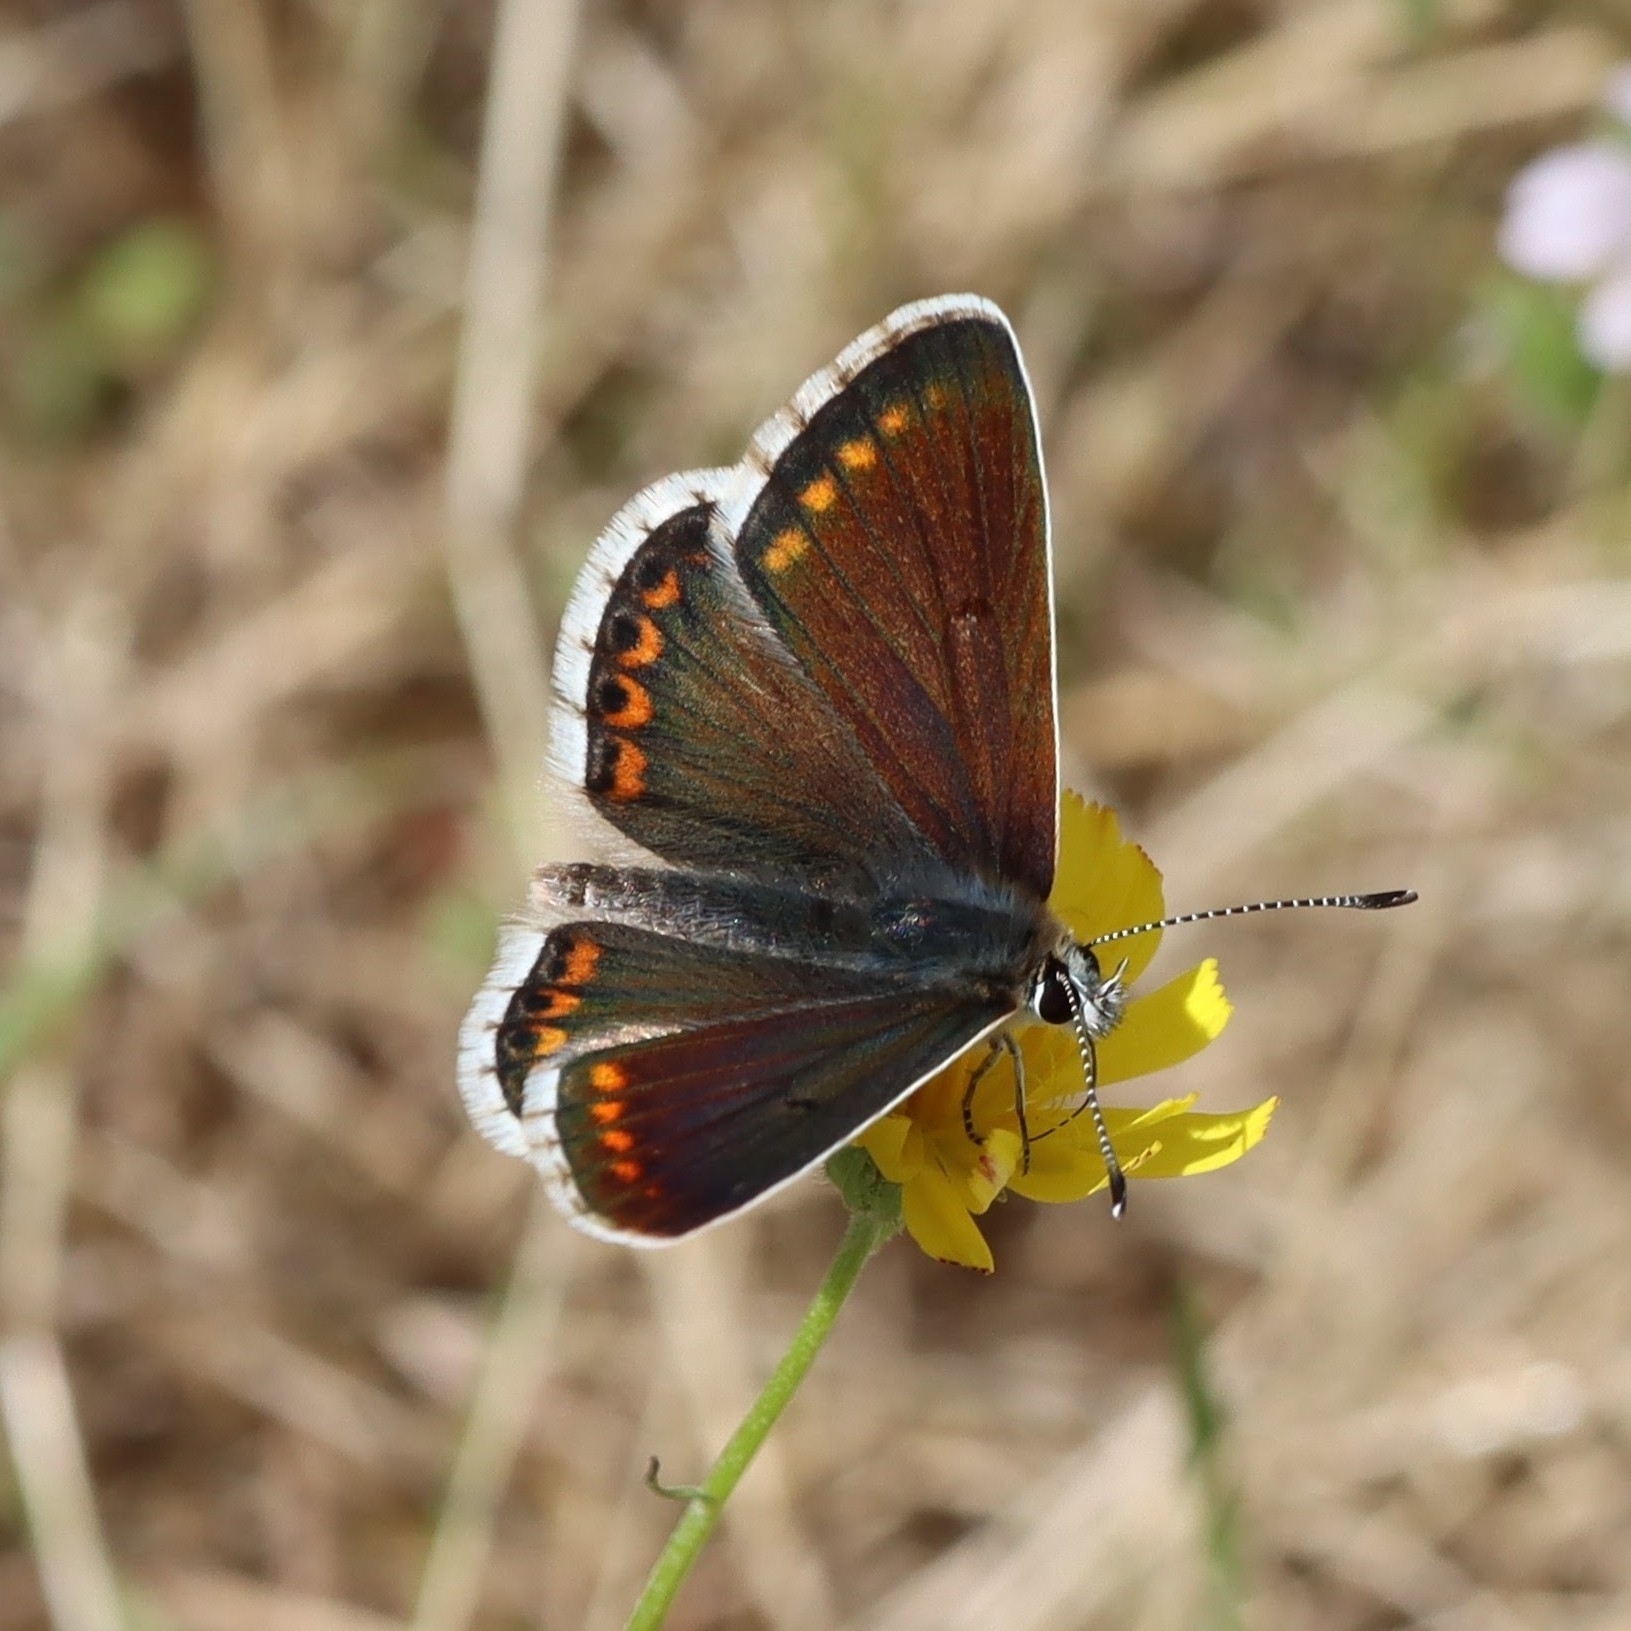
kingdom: Animalia
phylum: Arthropoda
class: Insecta
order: Lepidoptera
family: Lycaenidae
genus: Aricia
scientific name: Aricia agestis
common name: Brown argus
